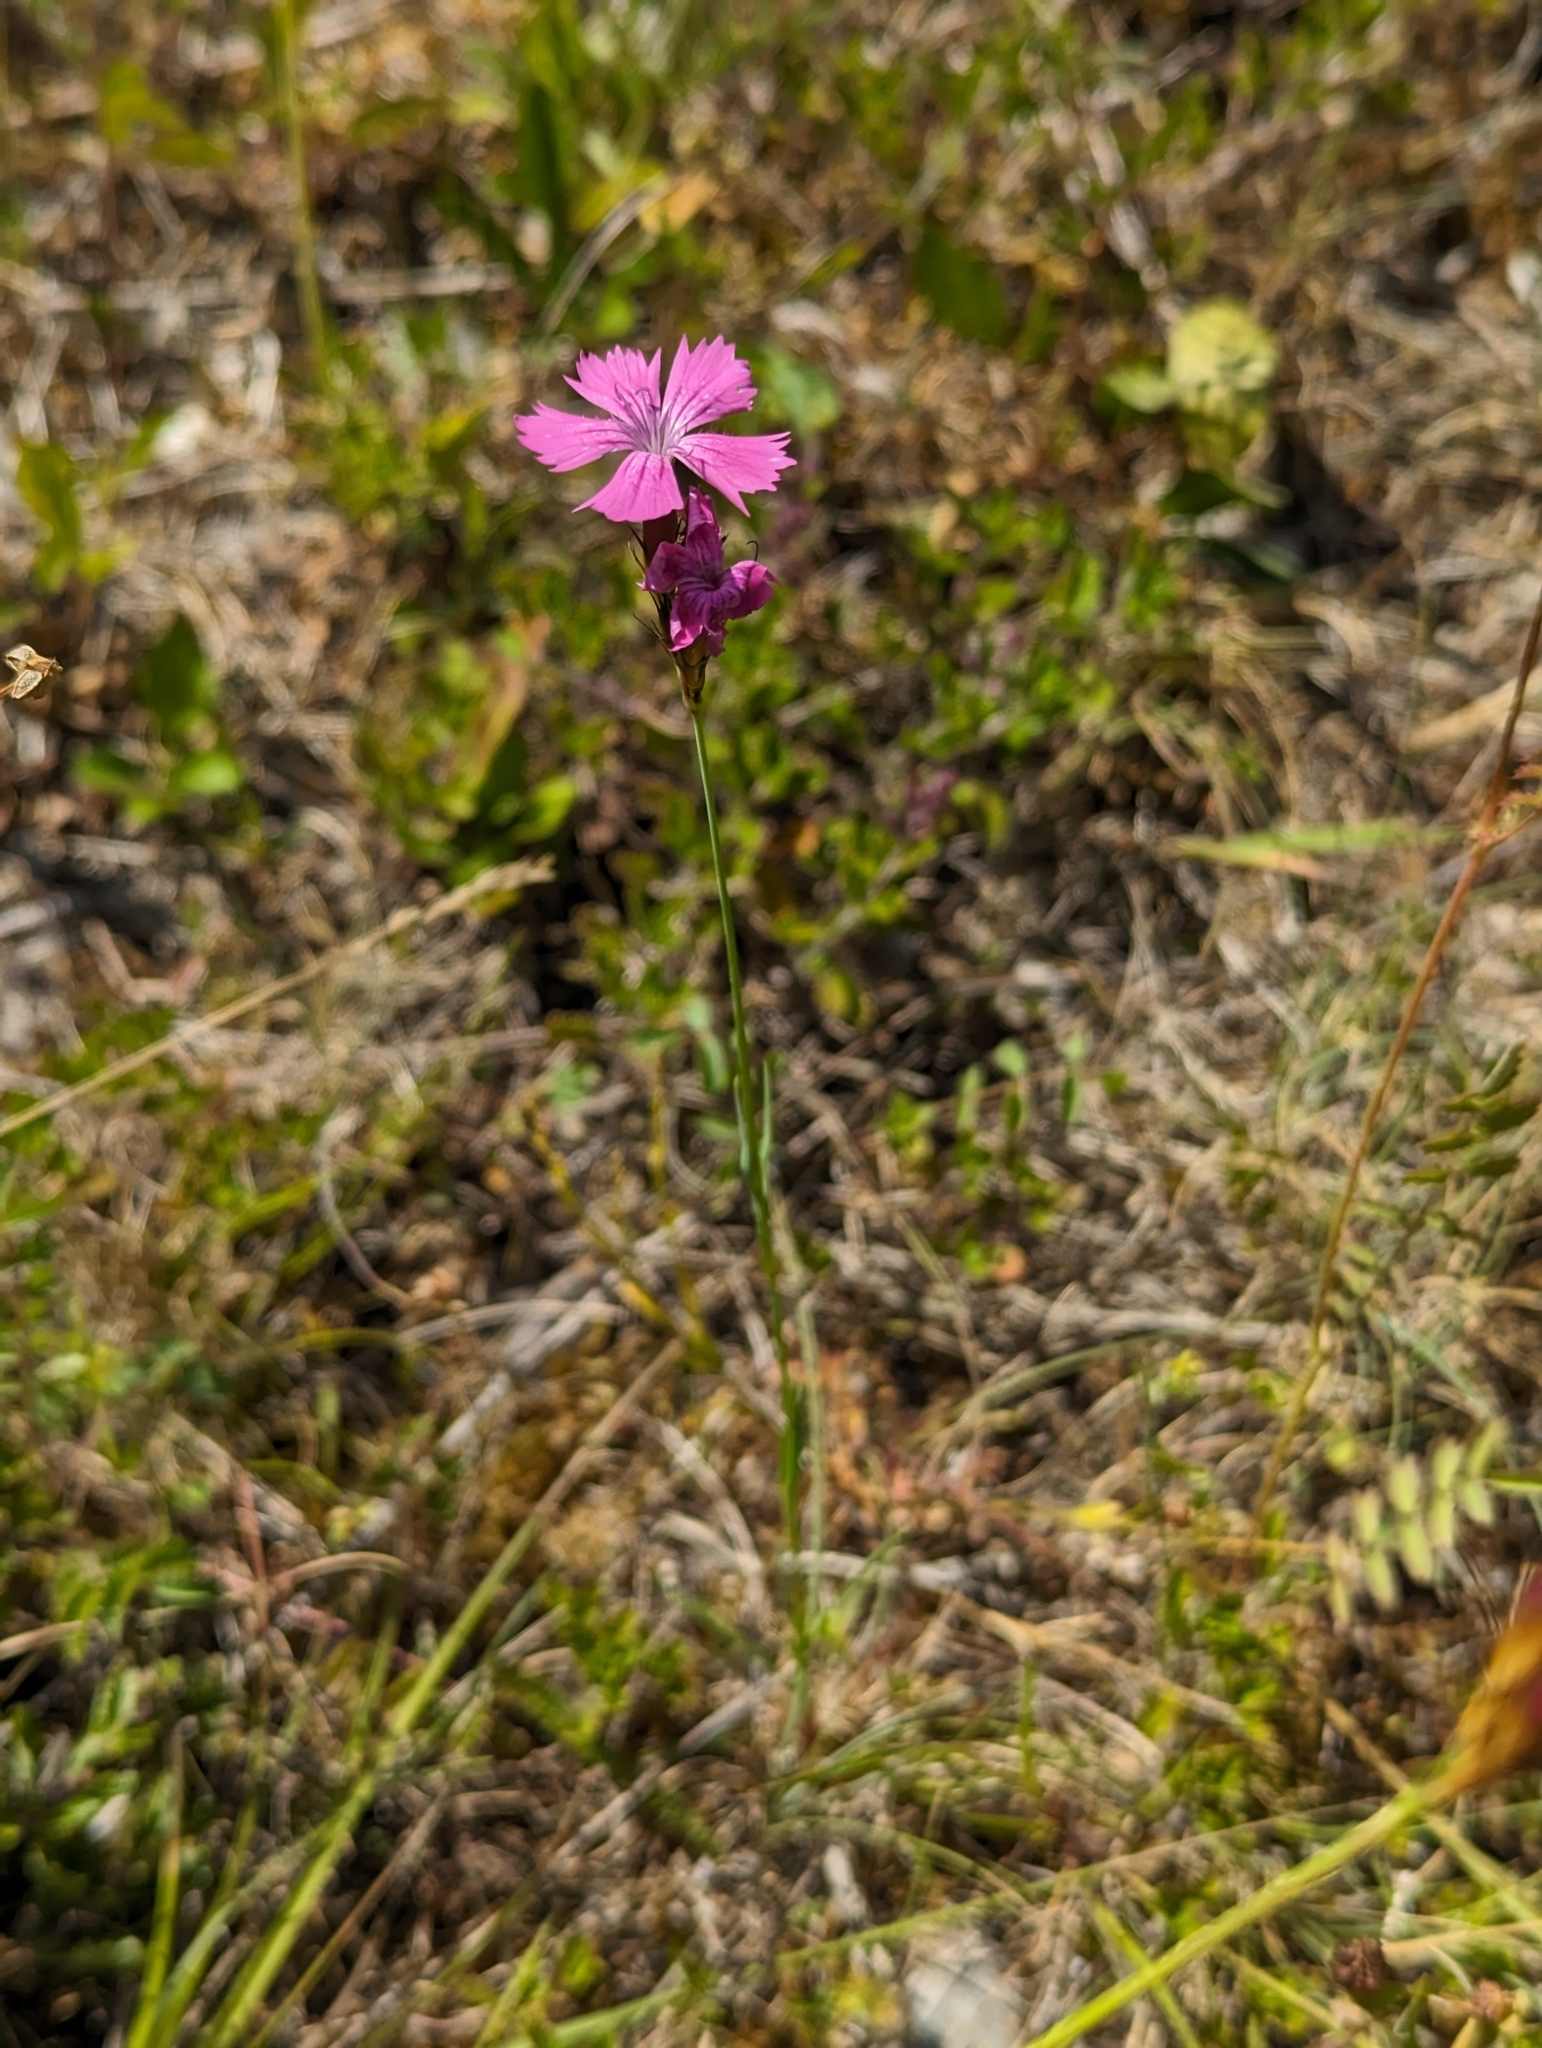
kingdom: Plantae
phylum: Tracheophyta
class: Magnoliopsida
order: Caryophyllales
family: Caryophyllaceae
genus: Dianthus
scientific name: Dianthus carthusianorum
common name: Carthusian pink
